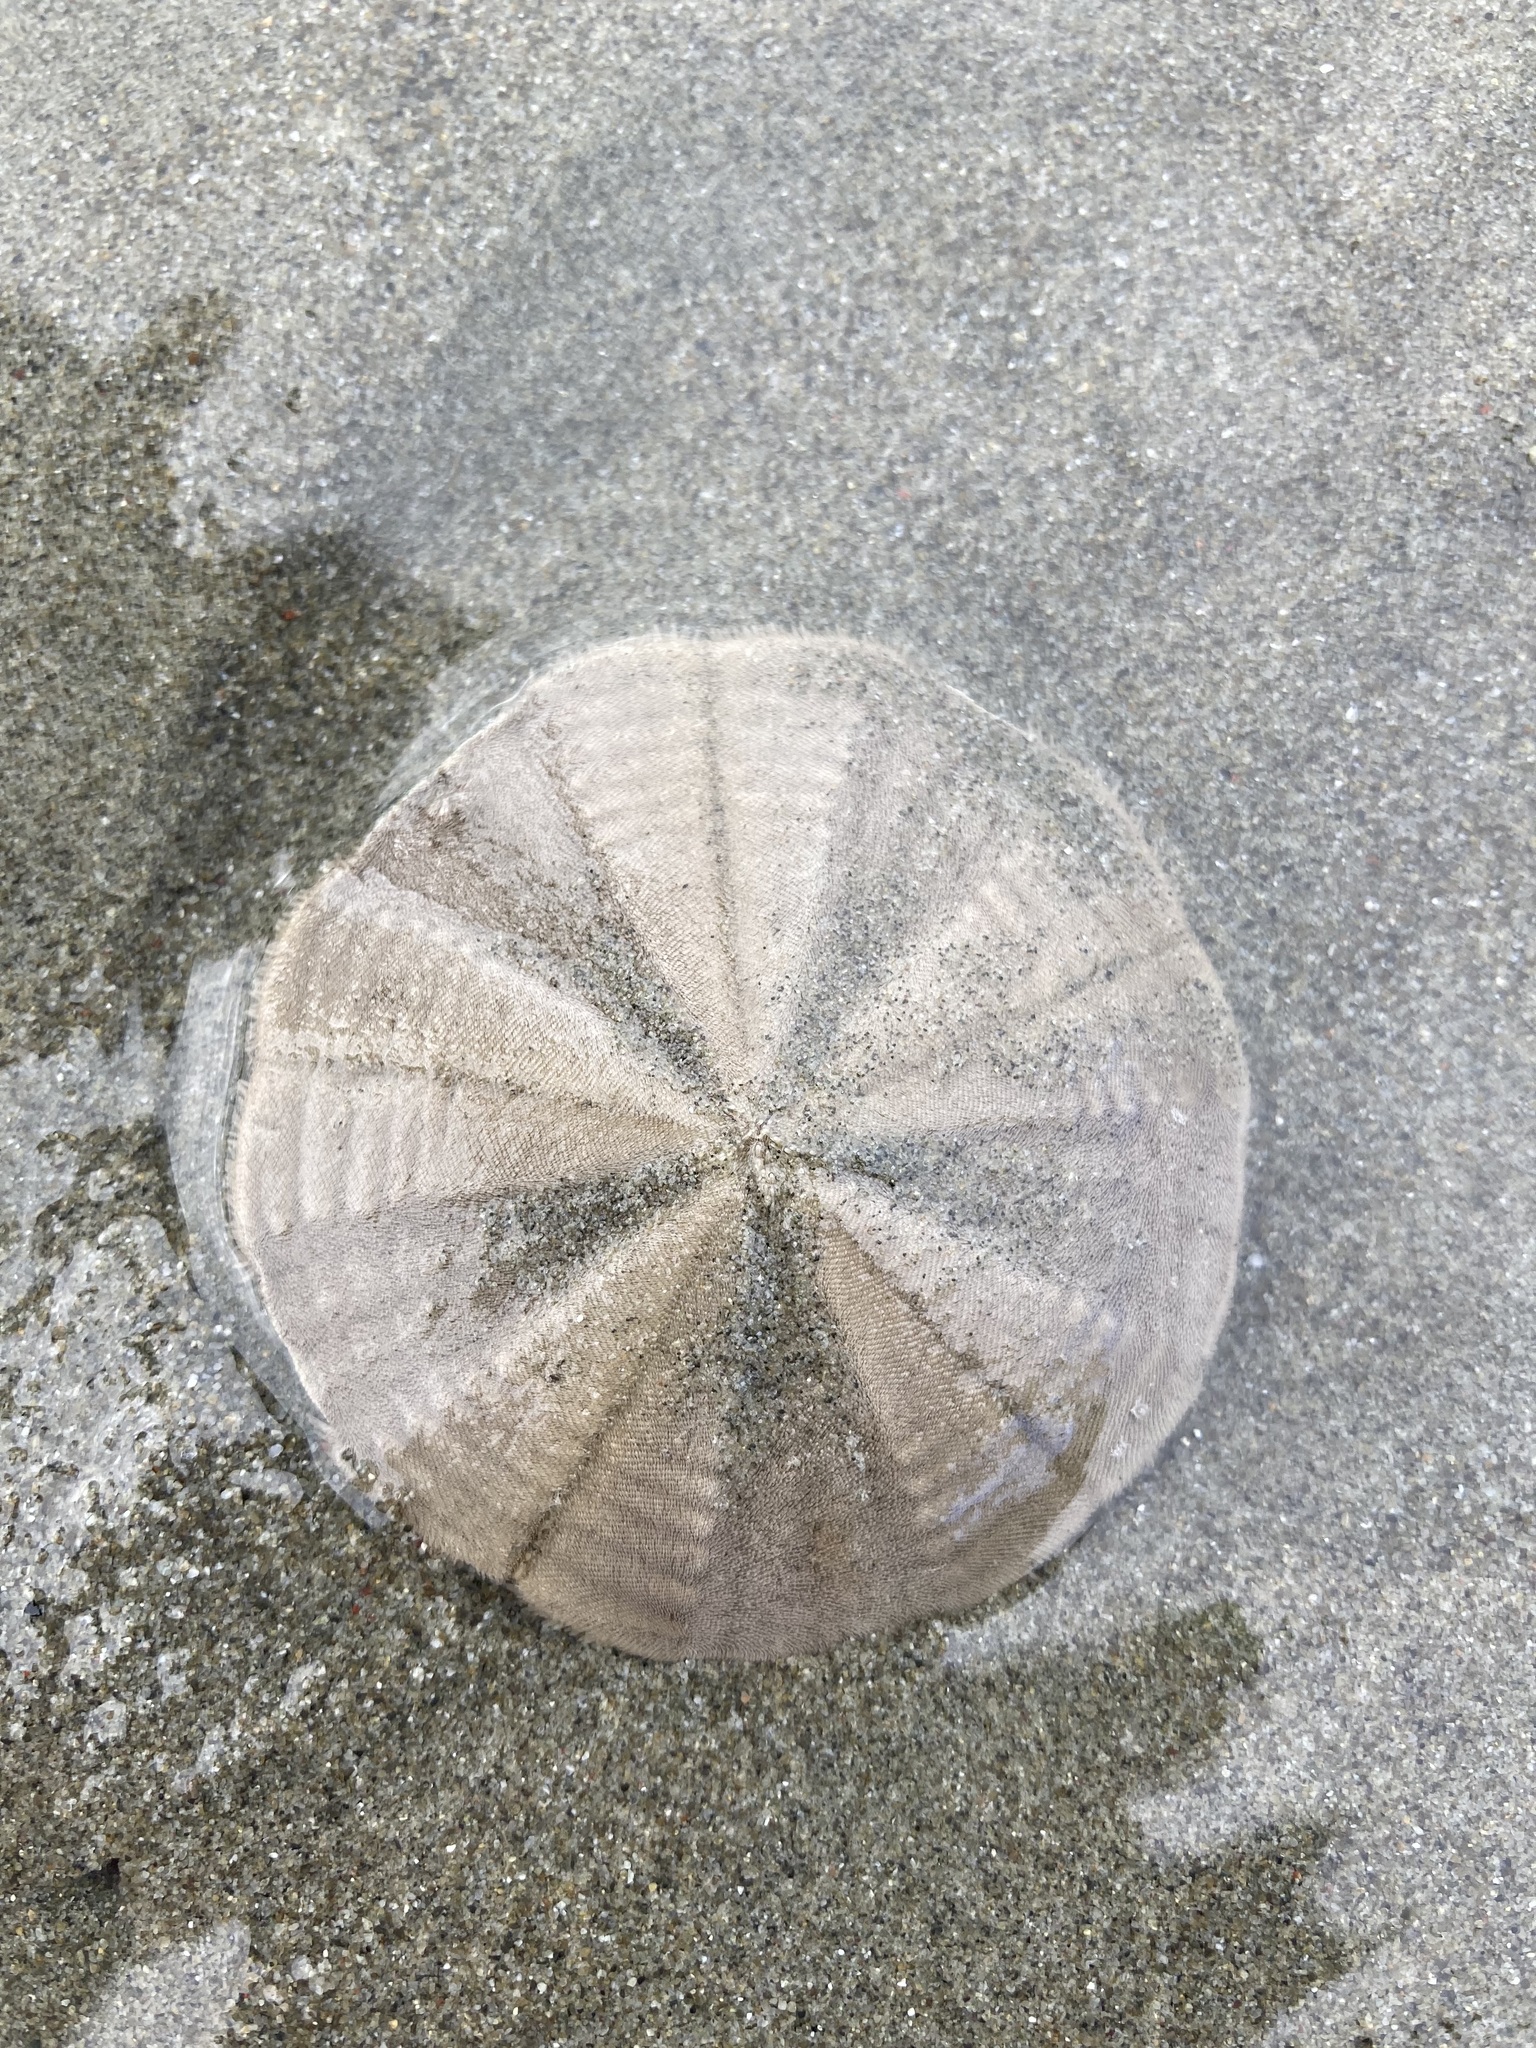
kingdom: Animalia
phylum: Echinodermata
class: Echinoidea
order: Clypeasteroida
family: Clypeasteridae
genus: Fellaster
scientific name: Fellaster zelandiae
